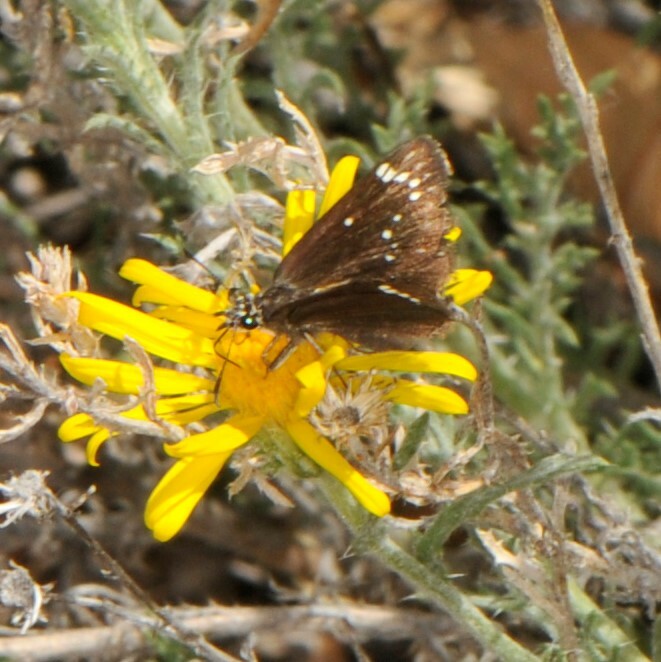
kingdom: Animalia
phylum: Arthropoda
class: Insecta
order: Lepidoptera
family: Hesperiidae
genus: Pholisora
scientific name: Pholisora catullus
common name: Common sootywing
